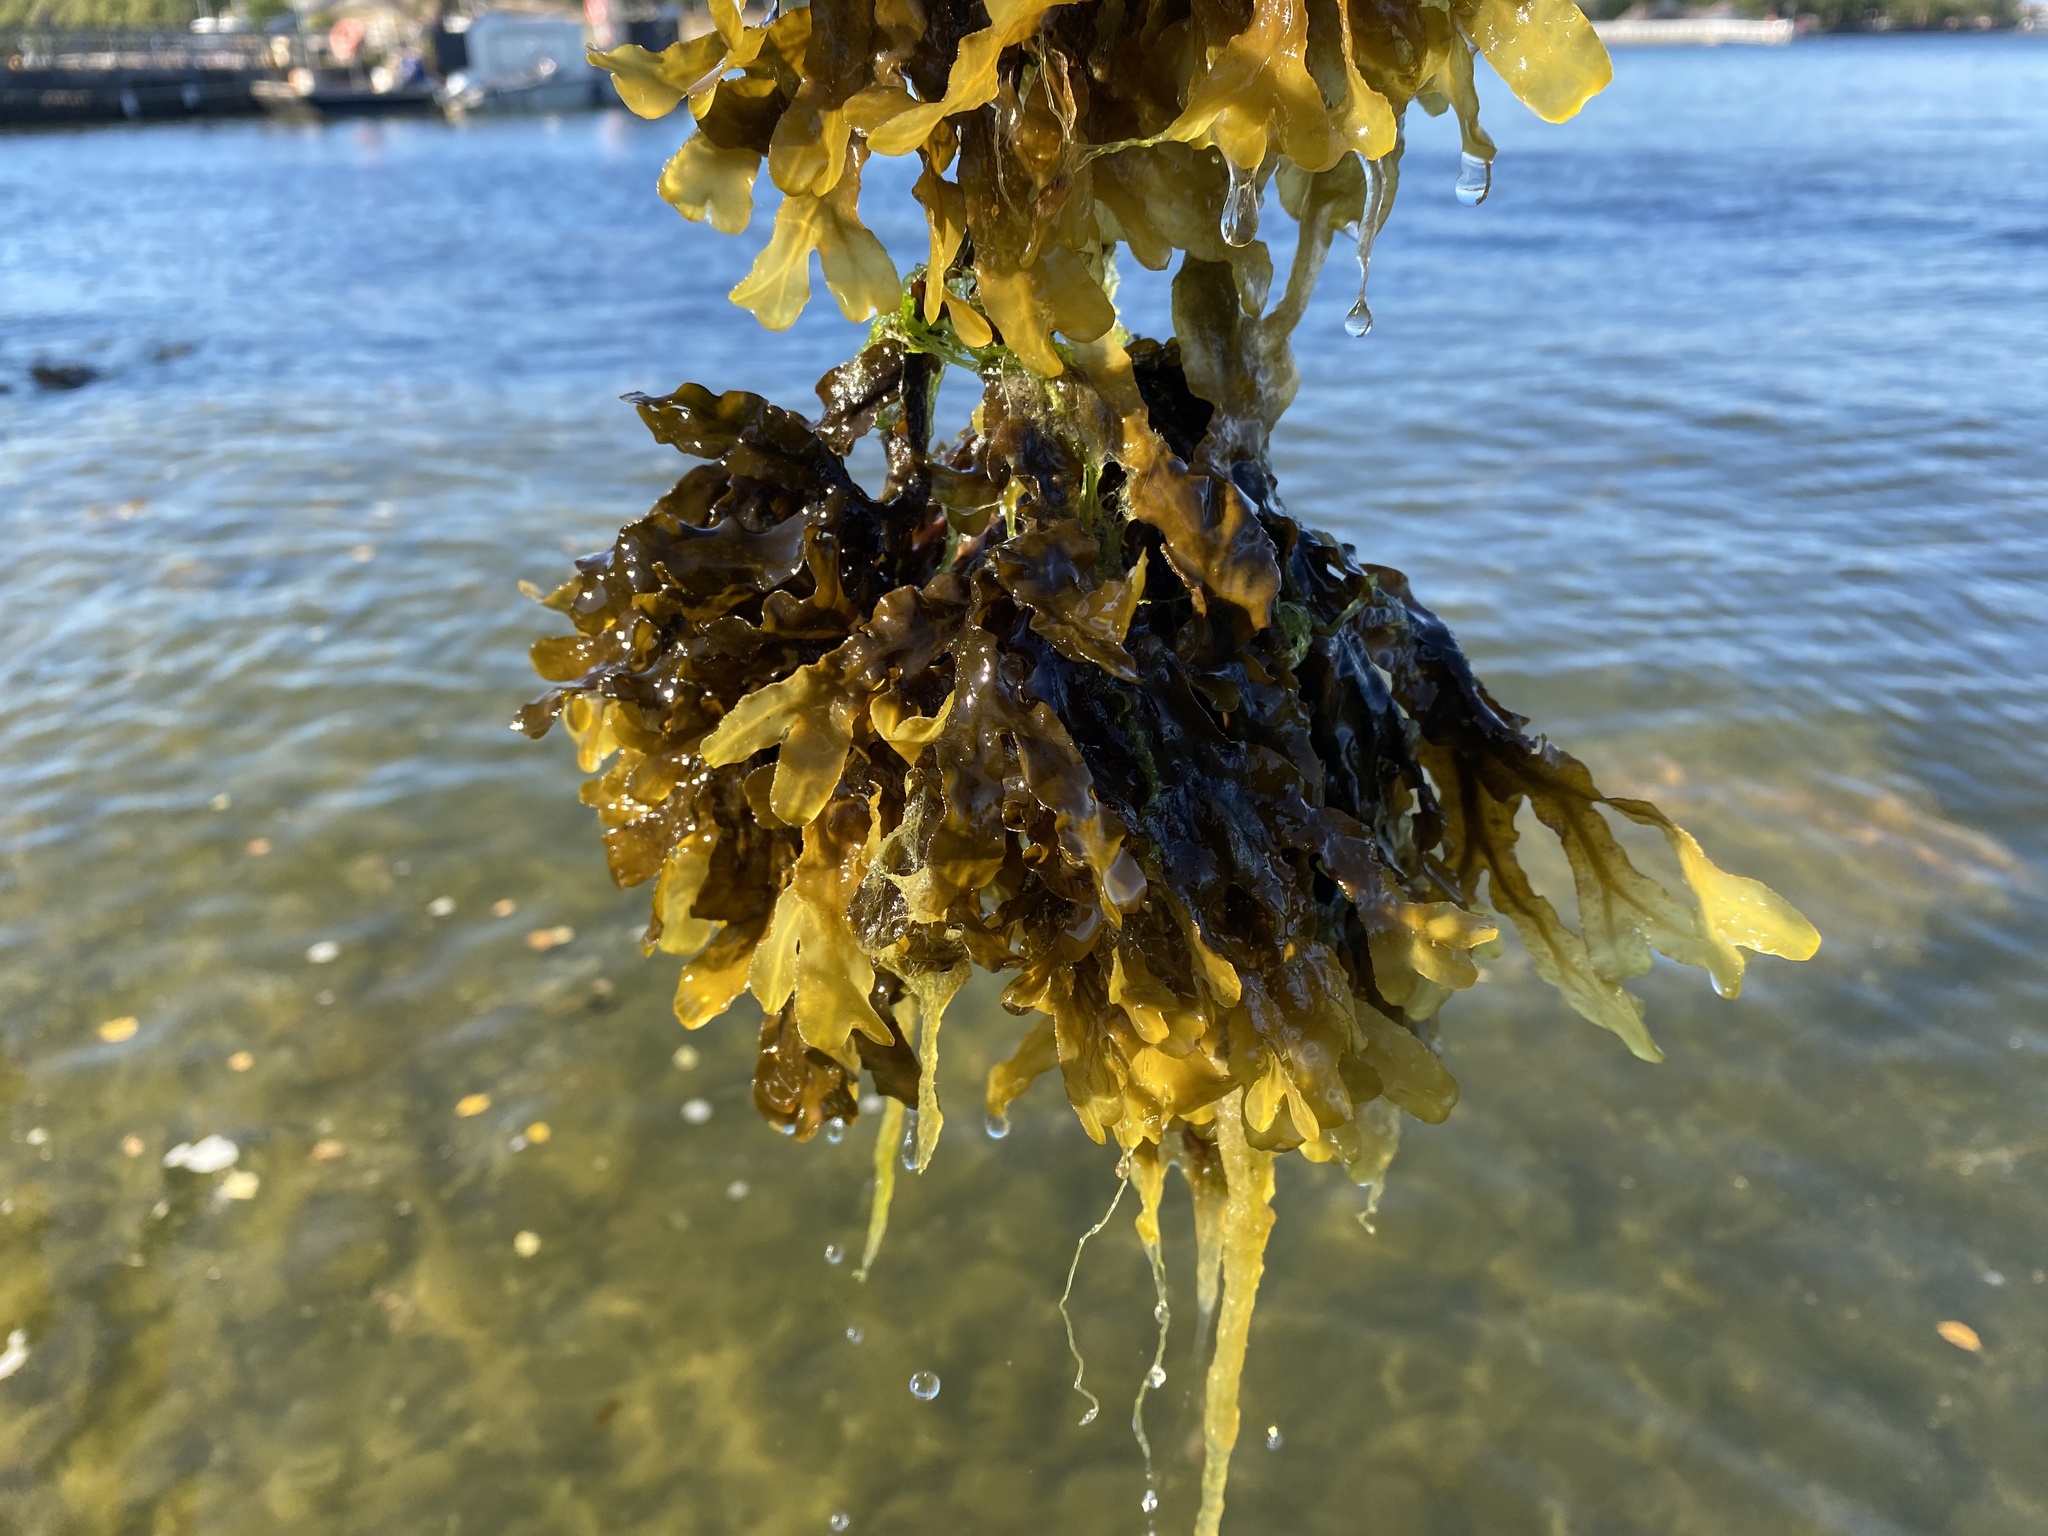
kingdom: Chromista
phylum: Ochrophyta
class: Phaeophyceae
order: Fucales
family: Fucaceae
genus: Fucus
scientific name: Fucus vesiculosus
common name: Bladder wrack
